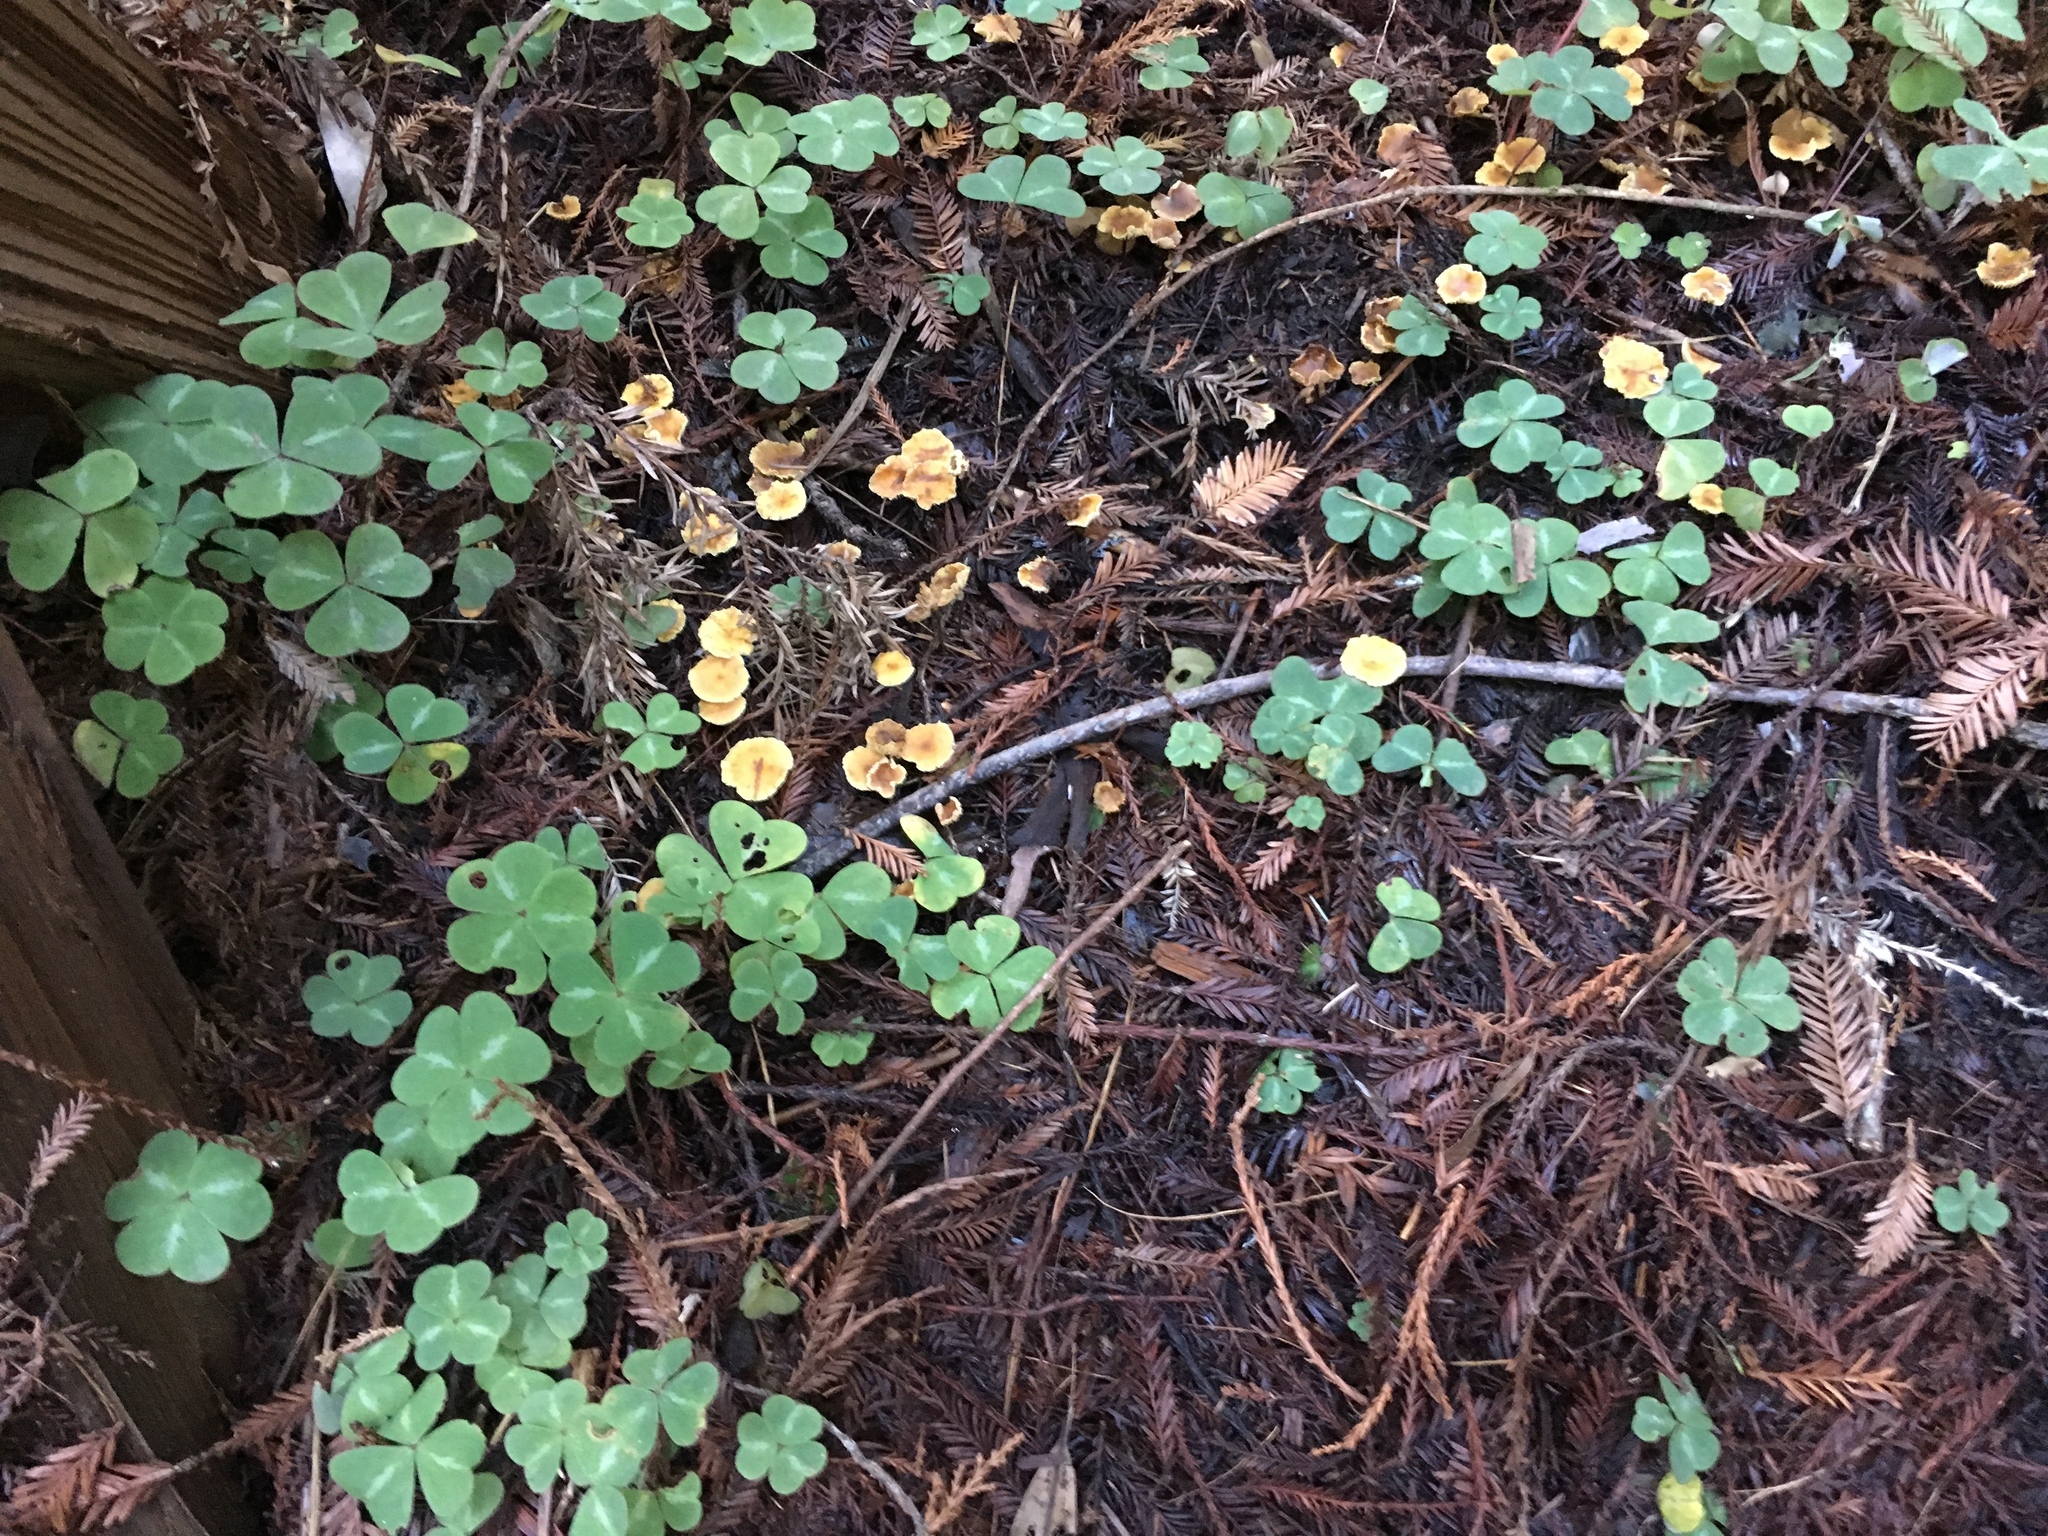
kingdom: Plantae
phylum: Tracheophyta
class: Magnoliopsida
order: Oxalidales
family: Oxalidaceae
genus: Oxalis
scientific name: Oxalis oregana
